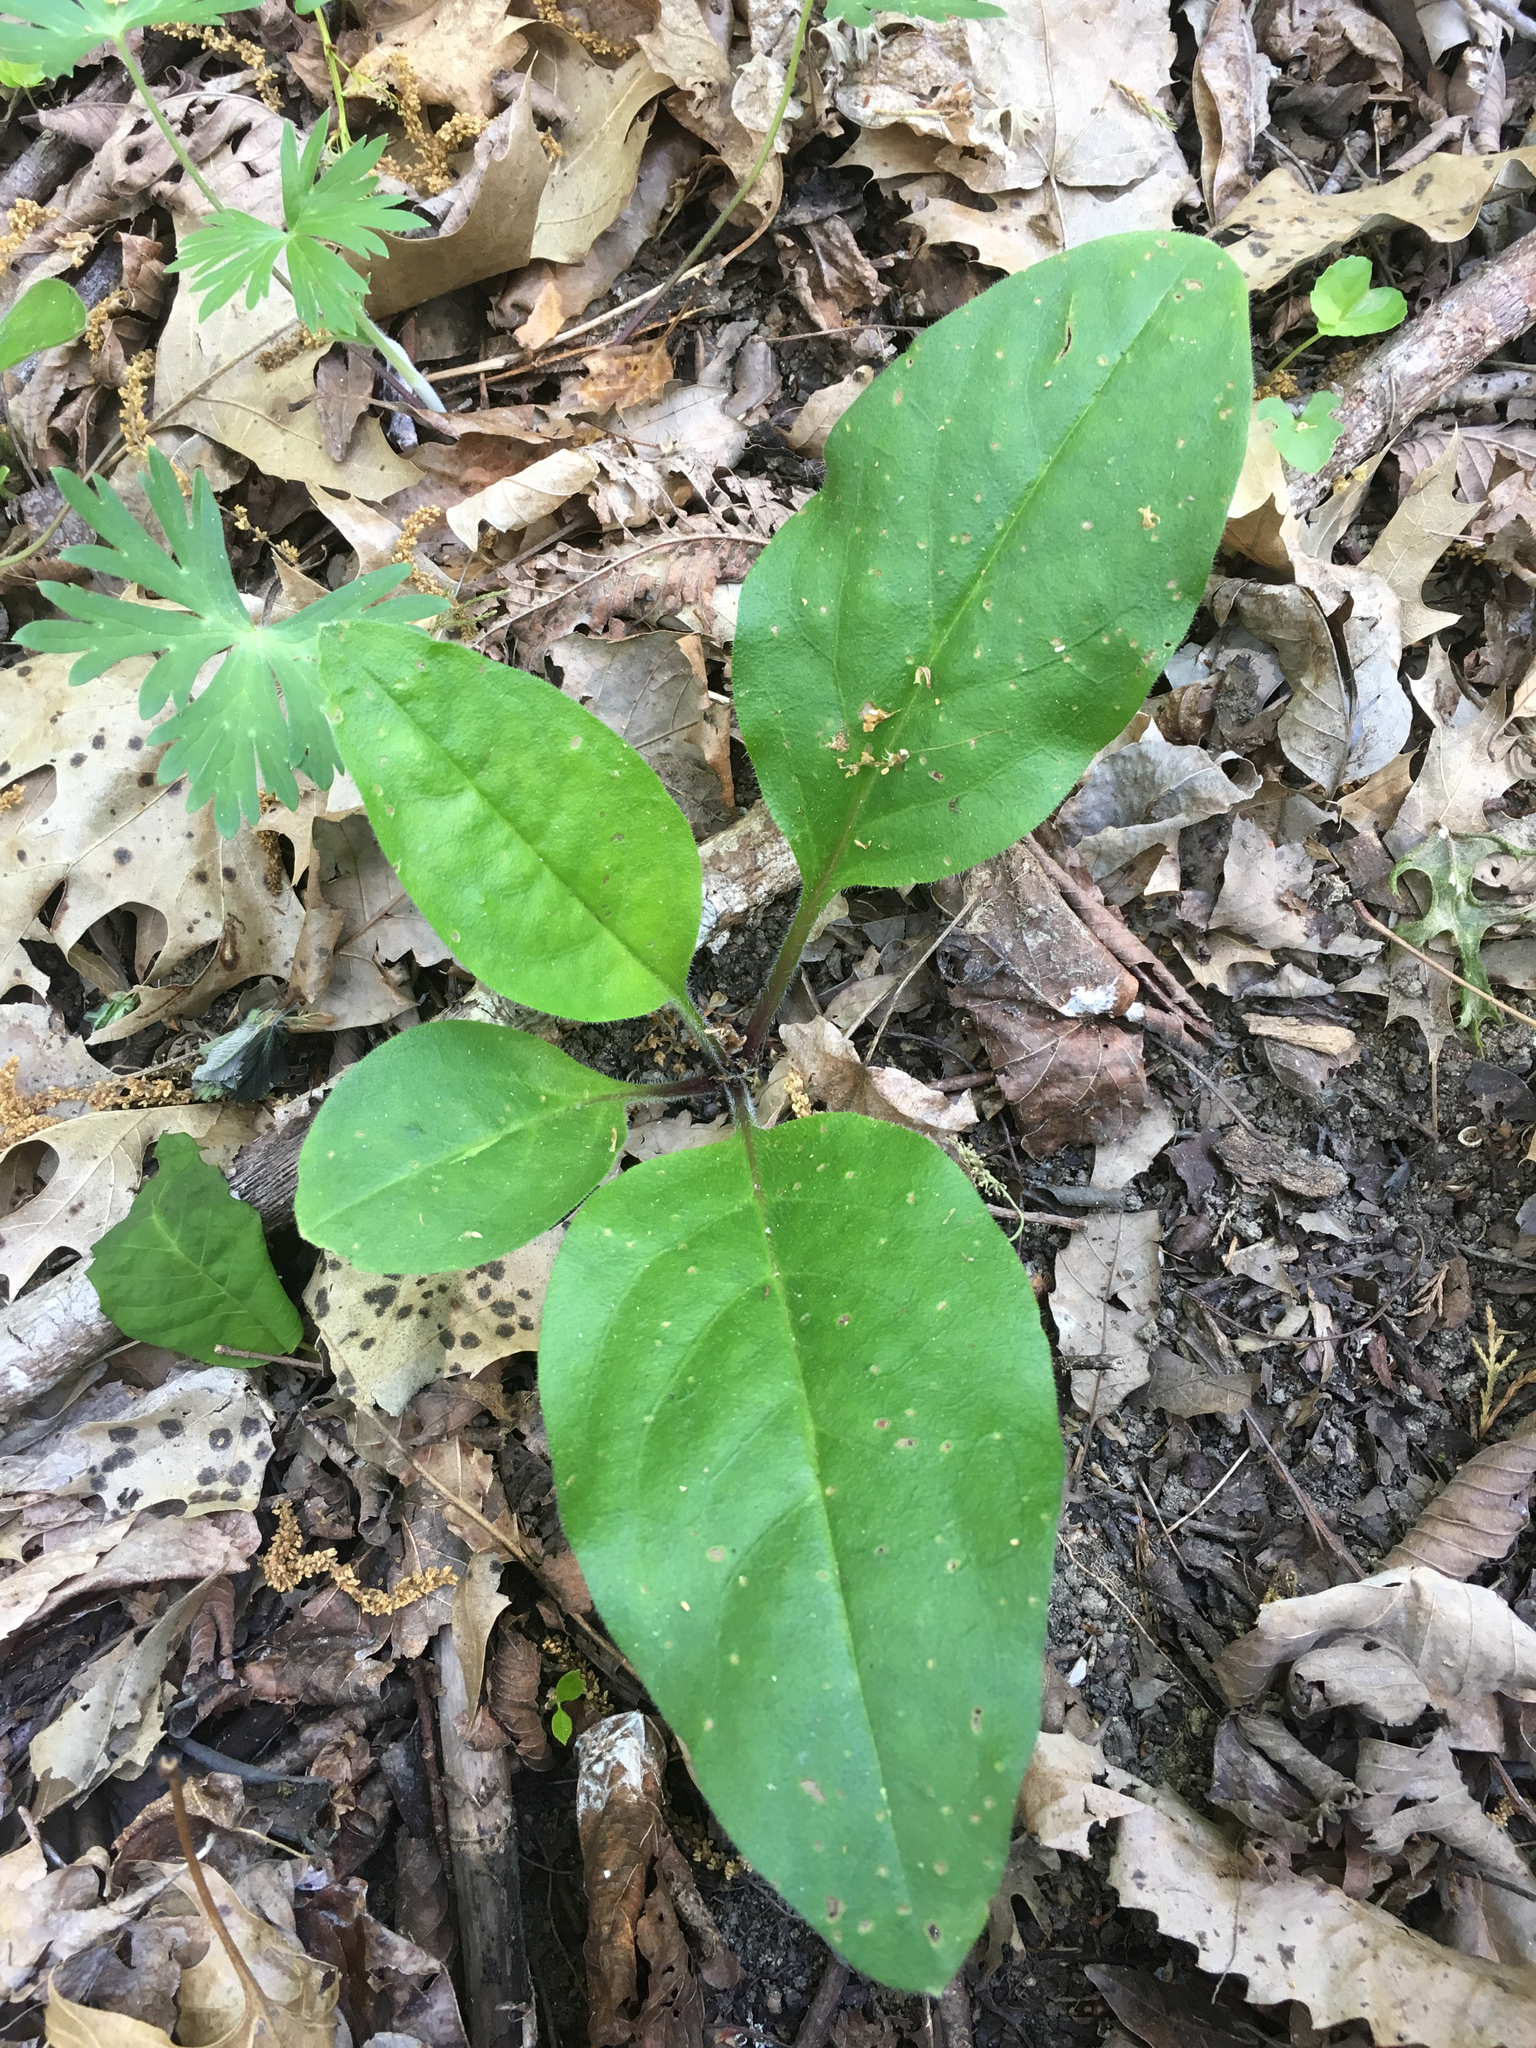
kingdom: Plantae
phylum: Tracheophyta
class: Magnoliopsida
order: Boraginales
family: Boraginaceae
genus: Andersonglossum
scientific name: Andersonglossum virginianum
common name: Wild comfrey
